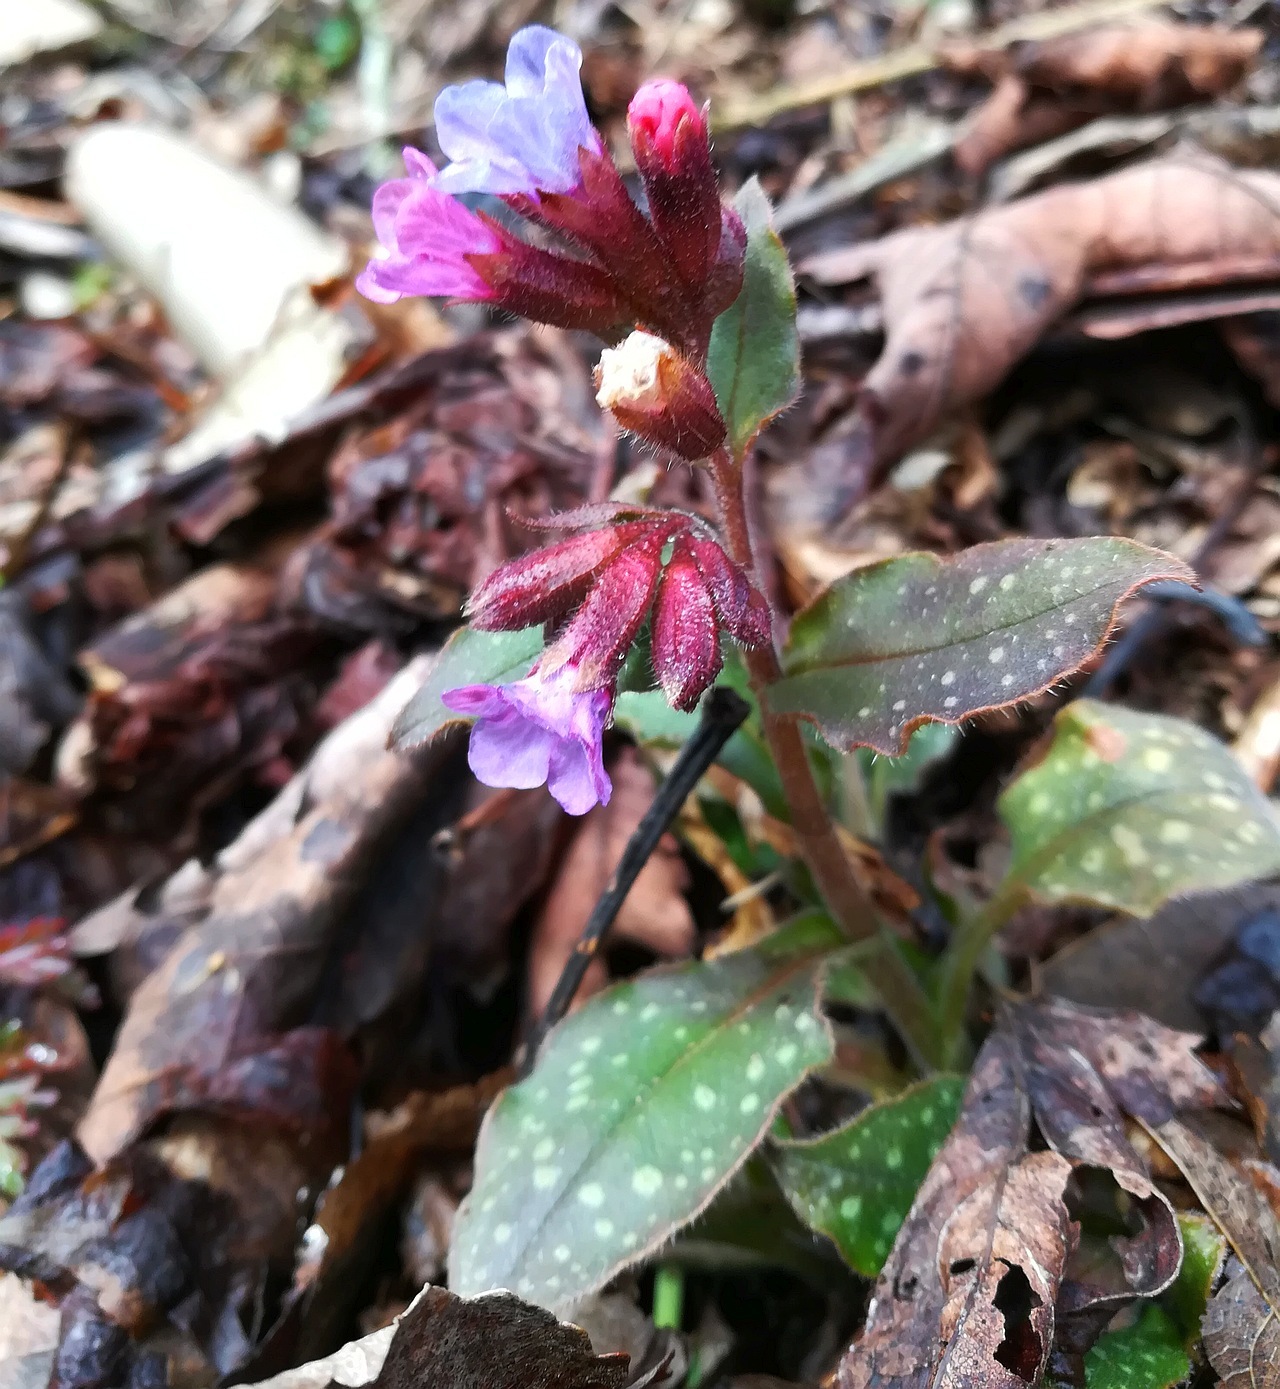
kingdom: Plantae
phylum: Tracheophyta
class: Magnoliopsida
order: Boraginales
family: Boraginaceae
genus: Pulmonaria
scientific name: Pulmonaria officinalis
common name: Lungwort
